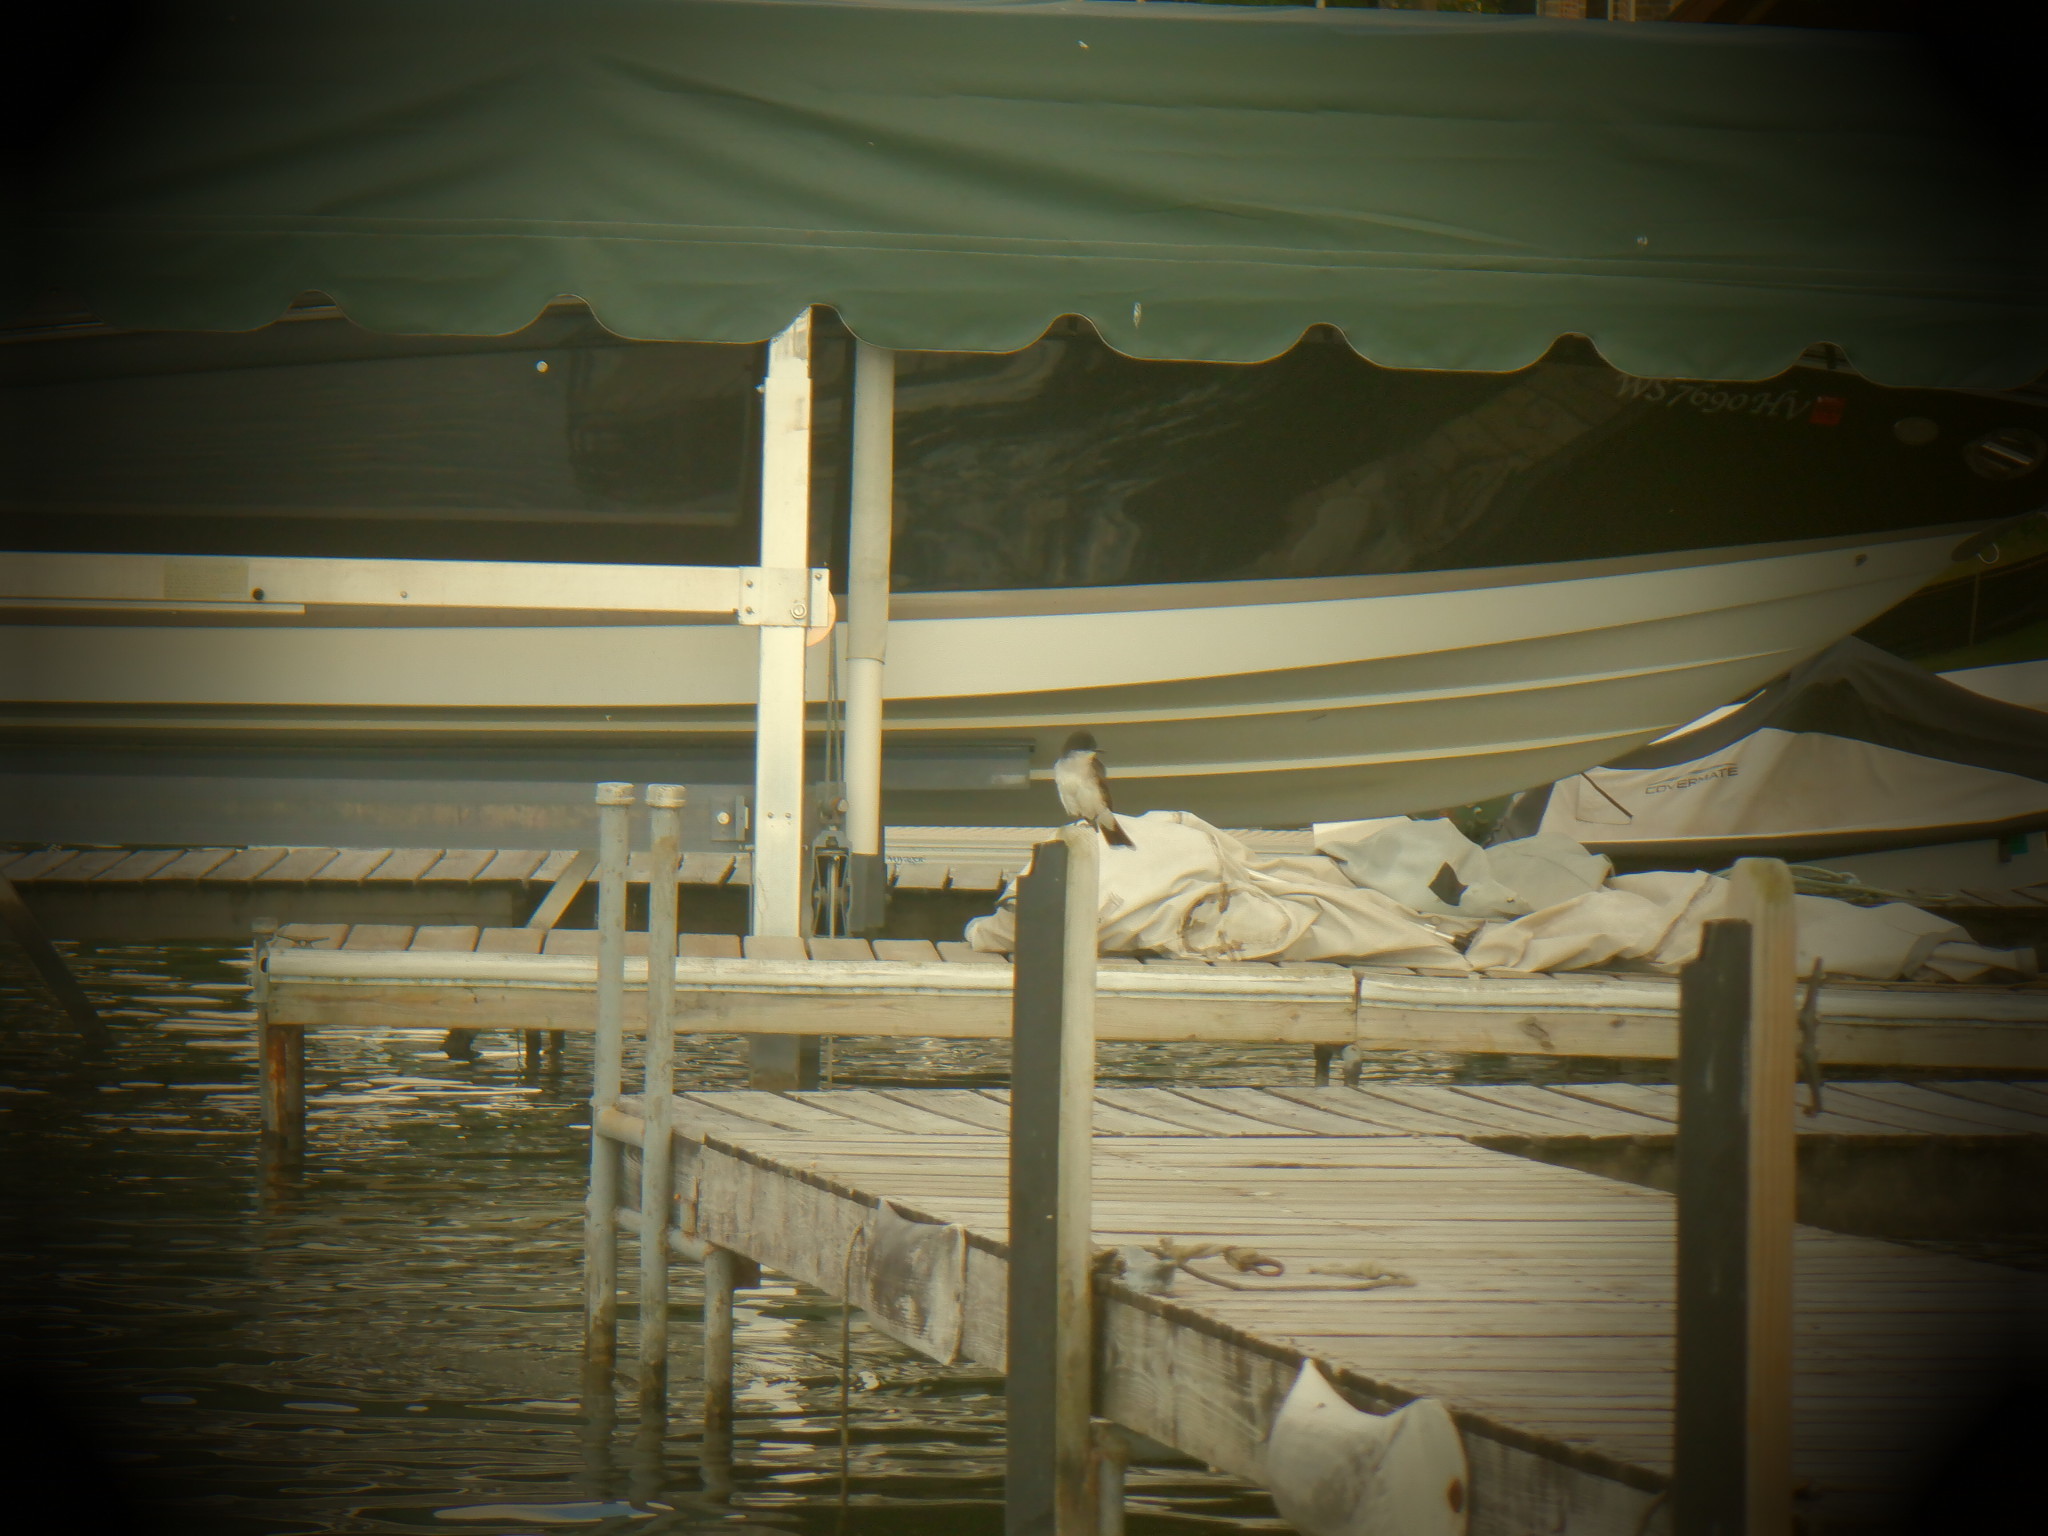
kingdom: Animalia
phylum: Chordata
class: Aves
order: Passeriformes
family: Tyrannidae
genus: Tyrannus
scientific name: Tyrannus tyrannus
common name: Eastern kingbird
